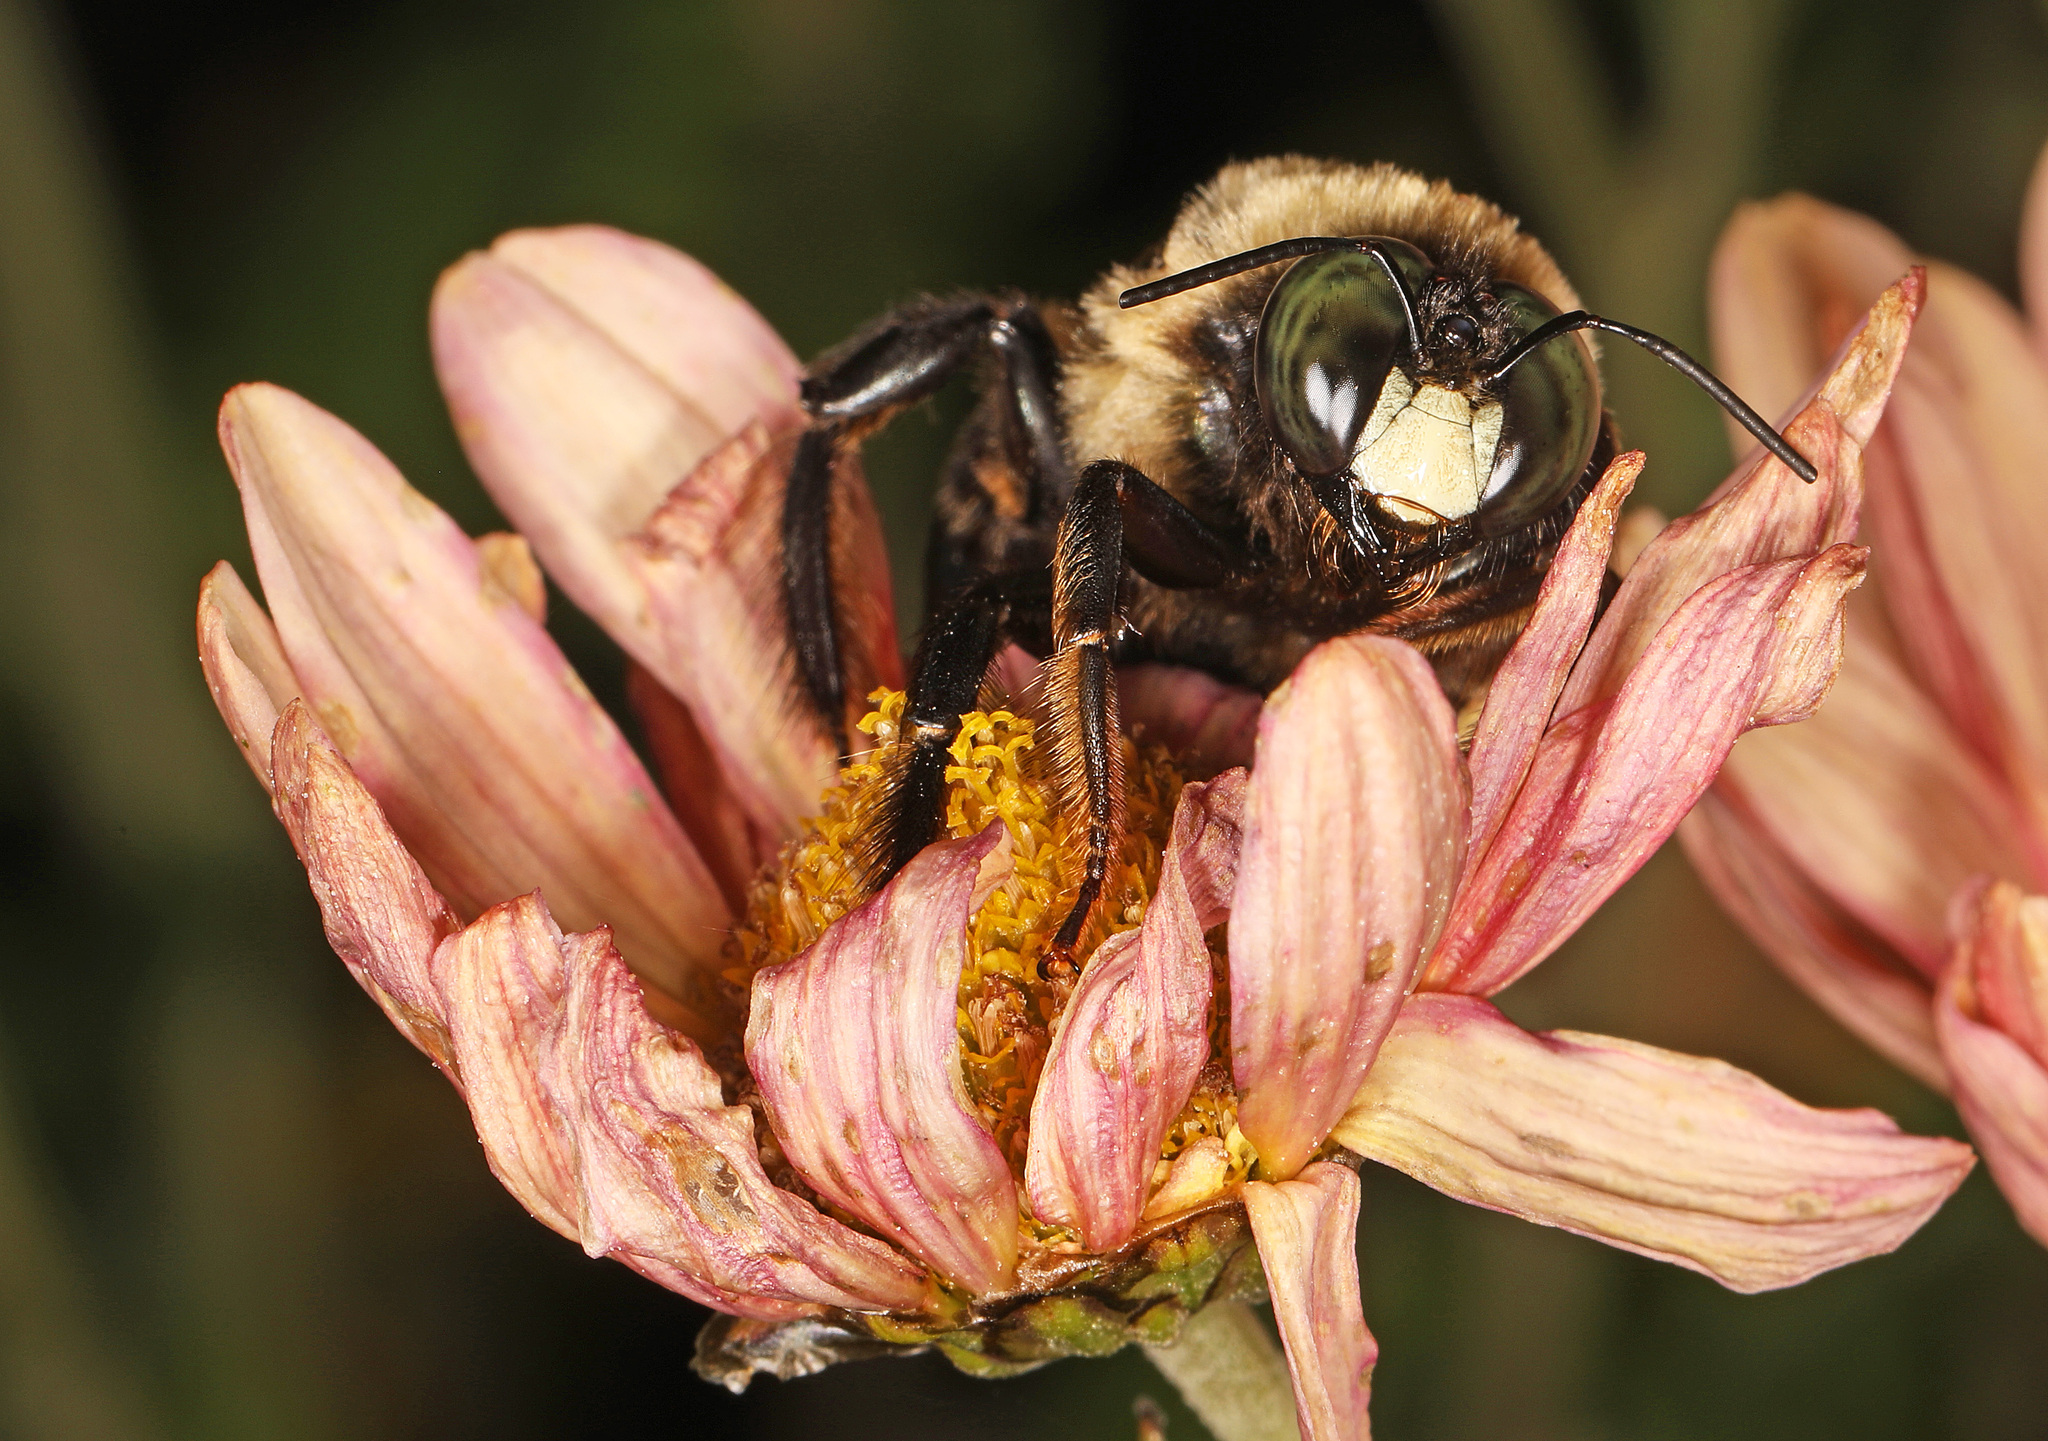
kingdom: Animalia
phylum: Arthropoda
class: Insecta
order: Hymenoptera
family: Apidae
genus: Xylocopa
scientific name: Xylocopa virginica
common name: Carpenter bee
